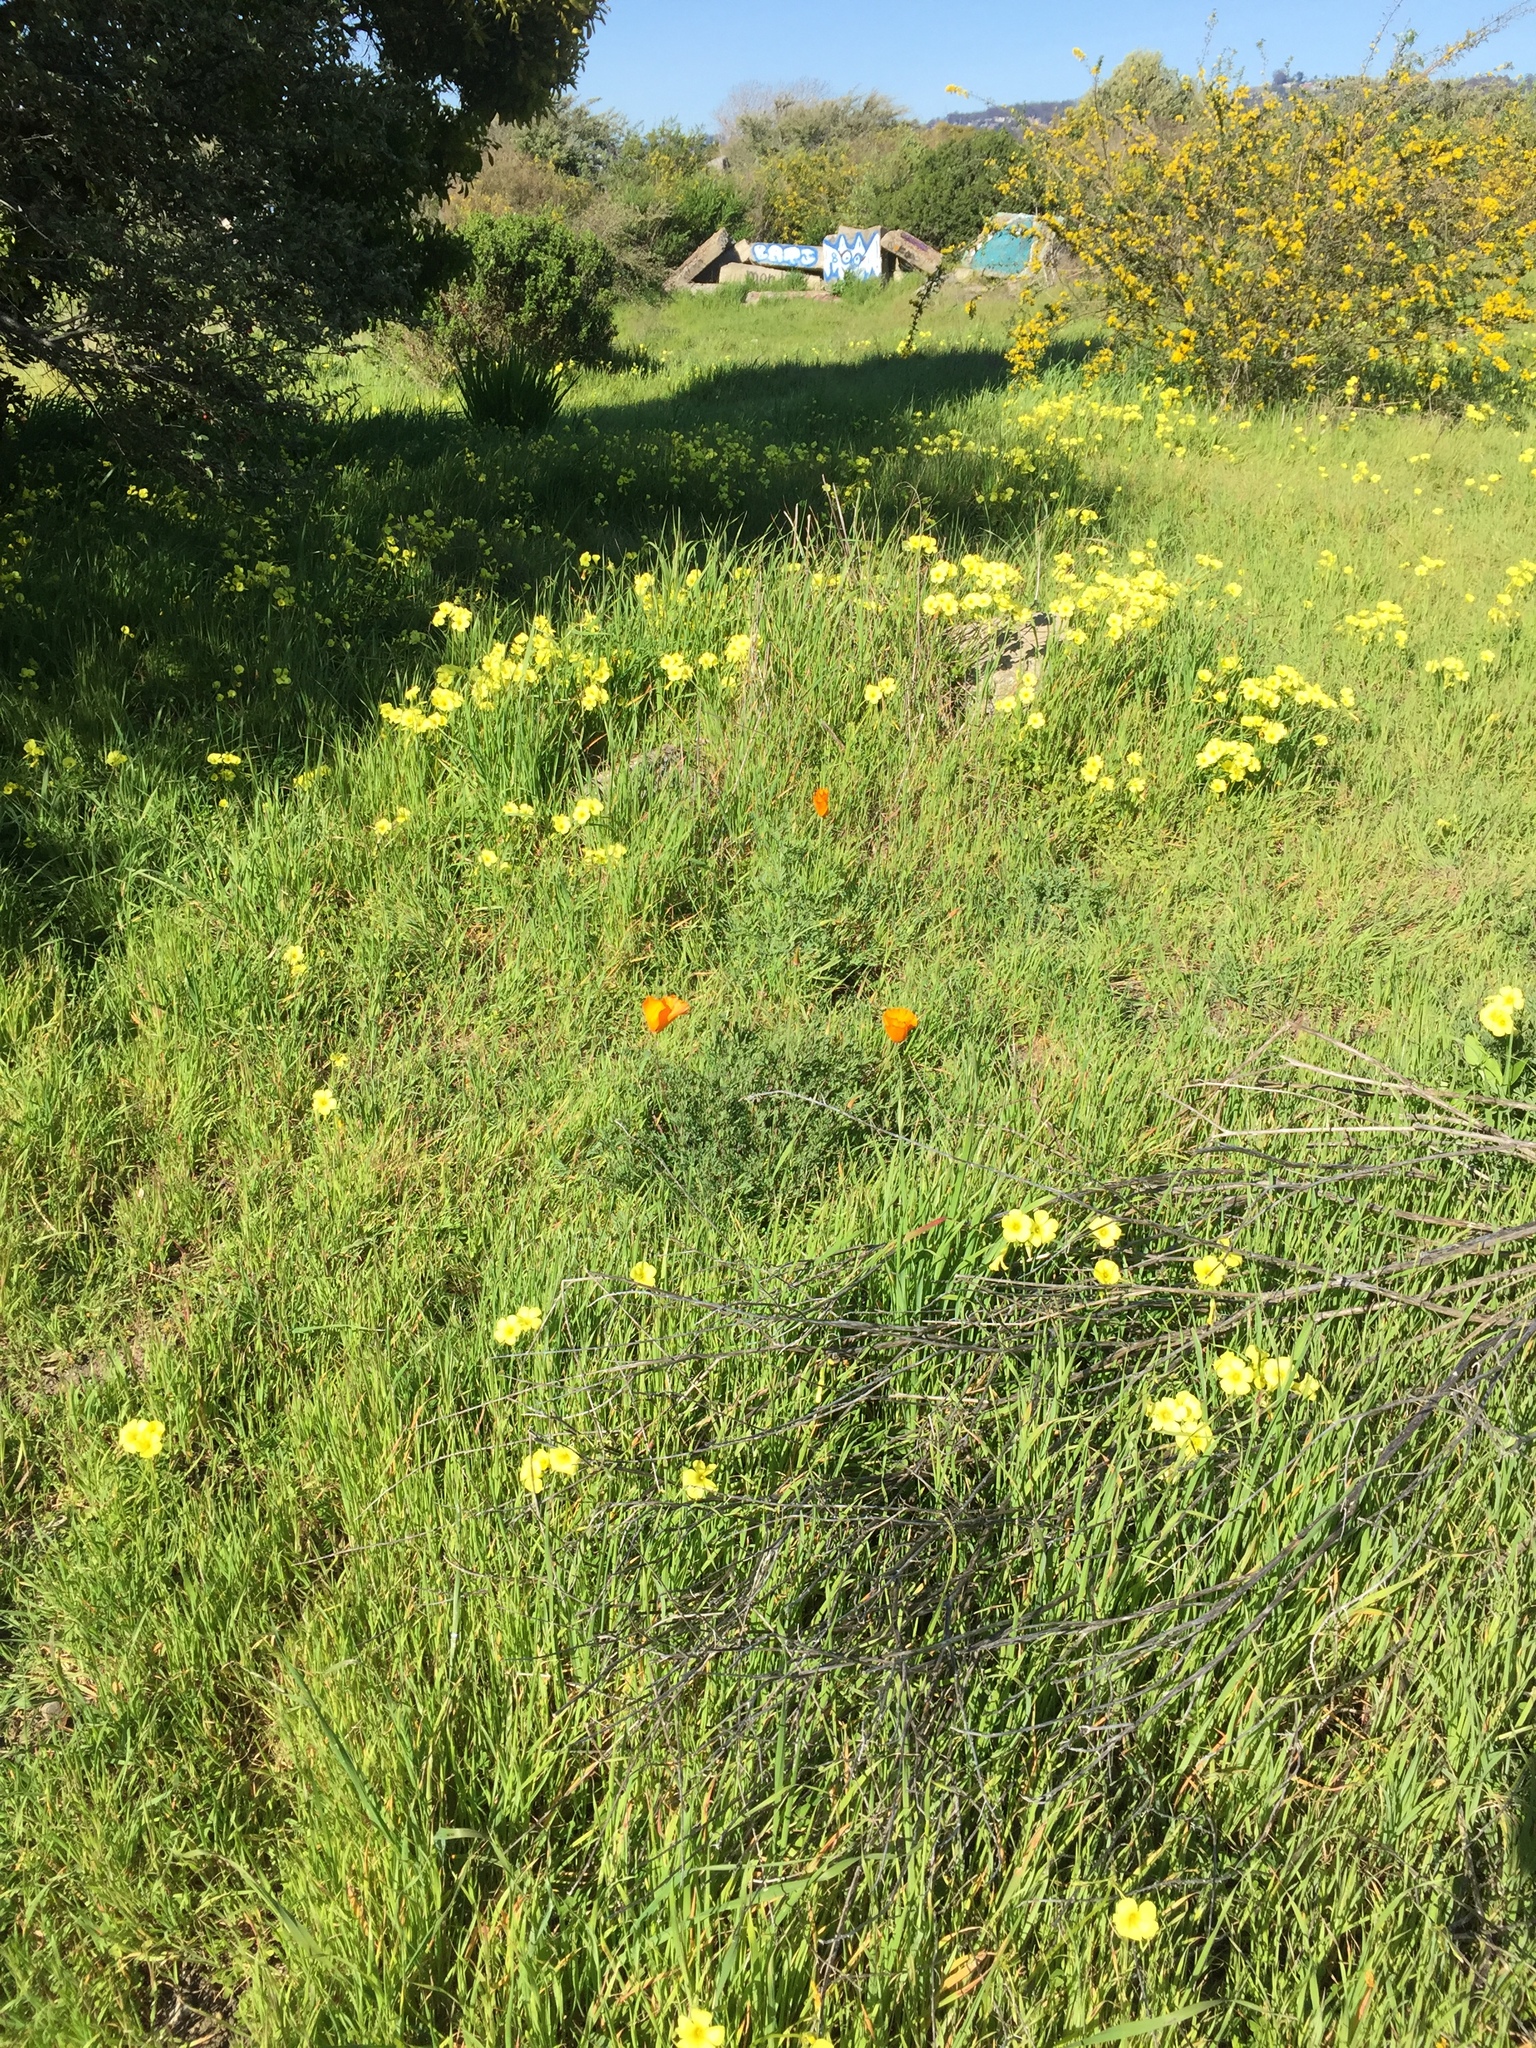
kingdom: Plantae
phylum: Tracheophyta
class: Magnoliopsida
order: Ranunculales
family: Papaveraceae
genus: Eschscholzia
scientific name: Eschscholzia californica
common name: California poppy
